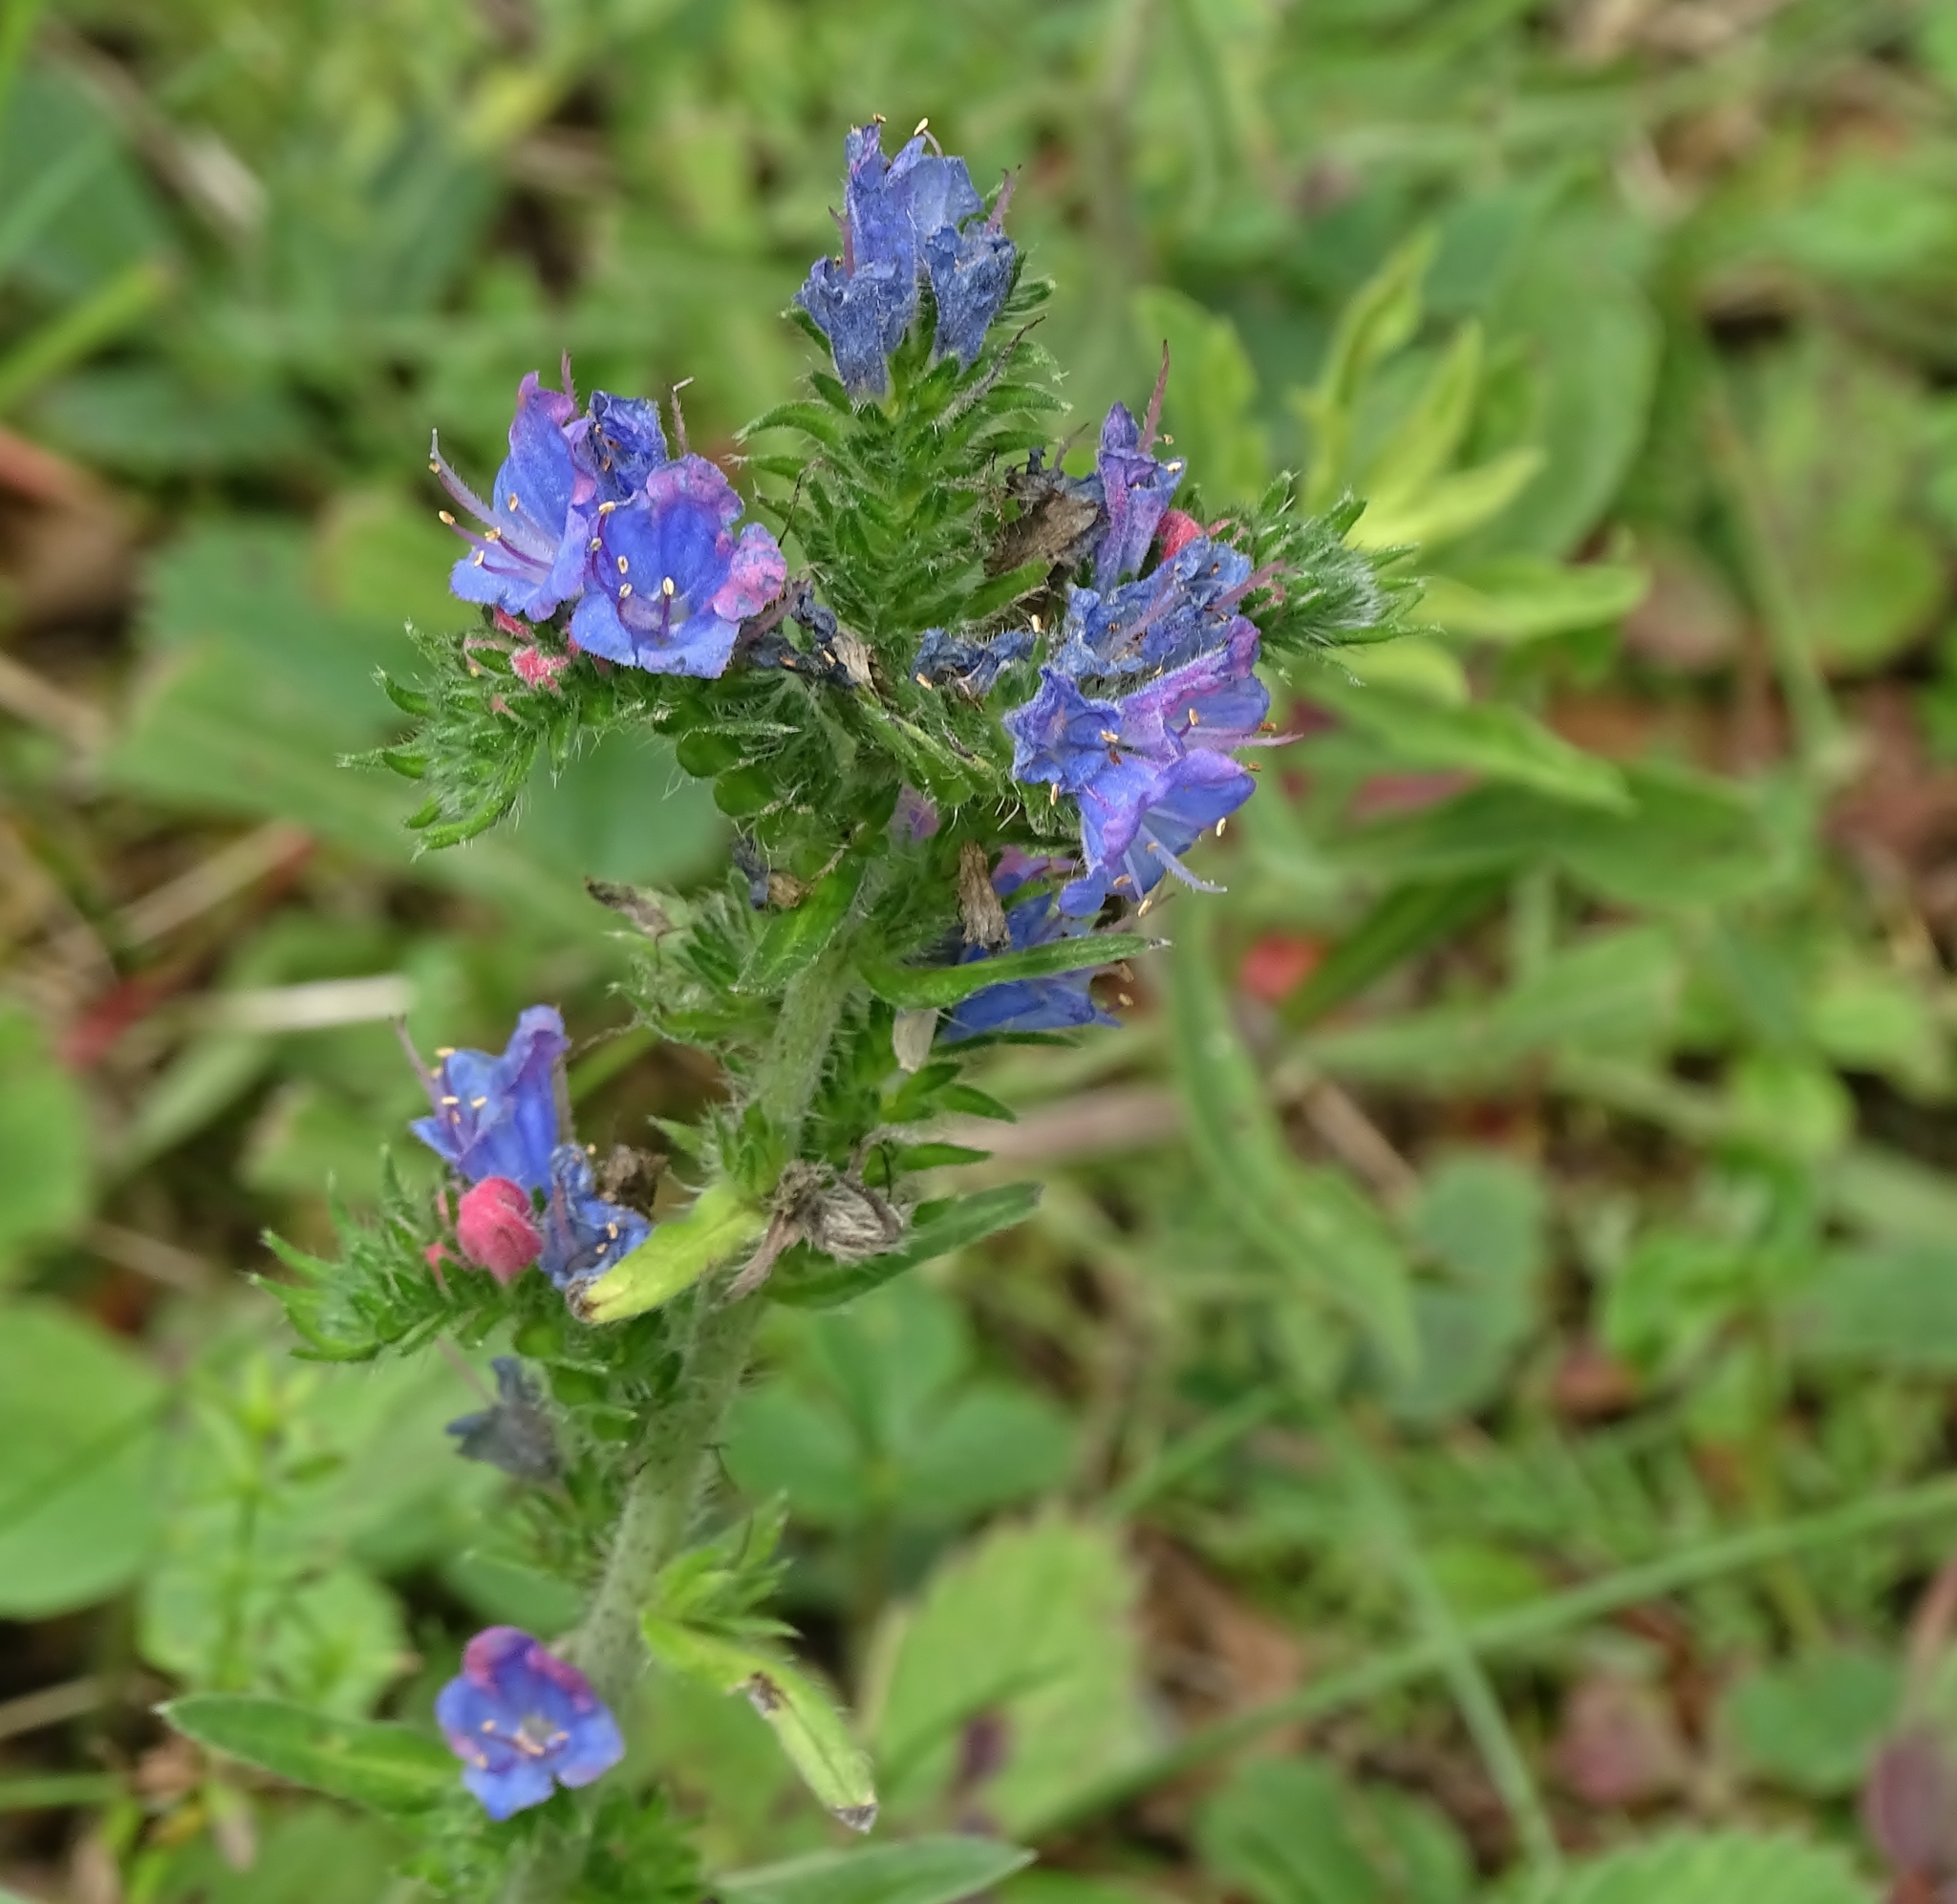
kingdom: Plantae
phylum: Tracheophyta
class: Magnoliopsida
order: Boraginales
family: Boraginaceae
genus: Echium
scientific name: Echium vulgare
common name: Common viper's bugloss
